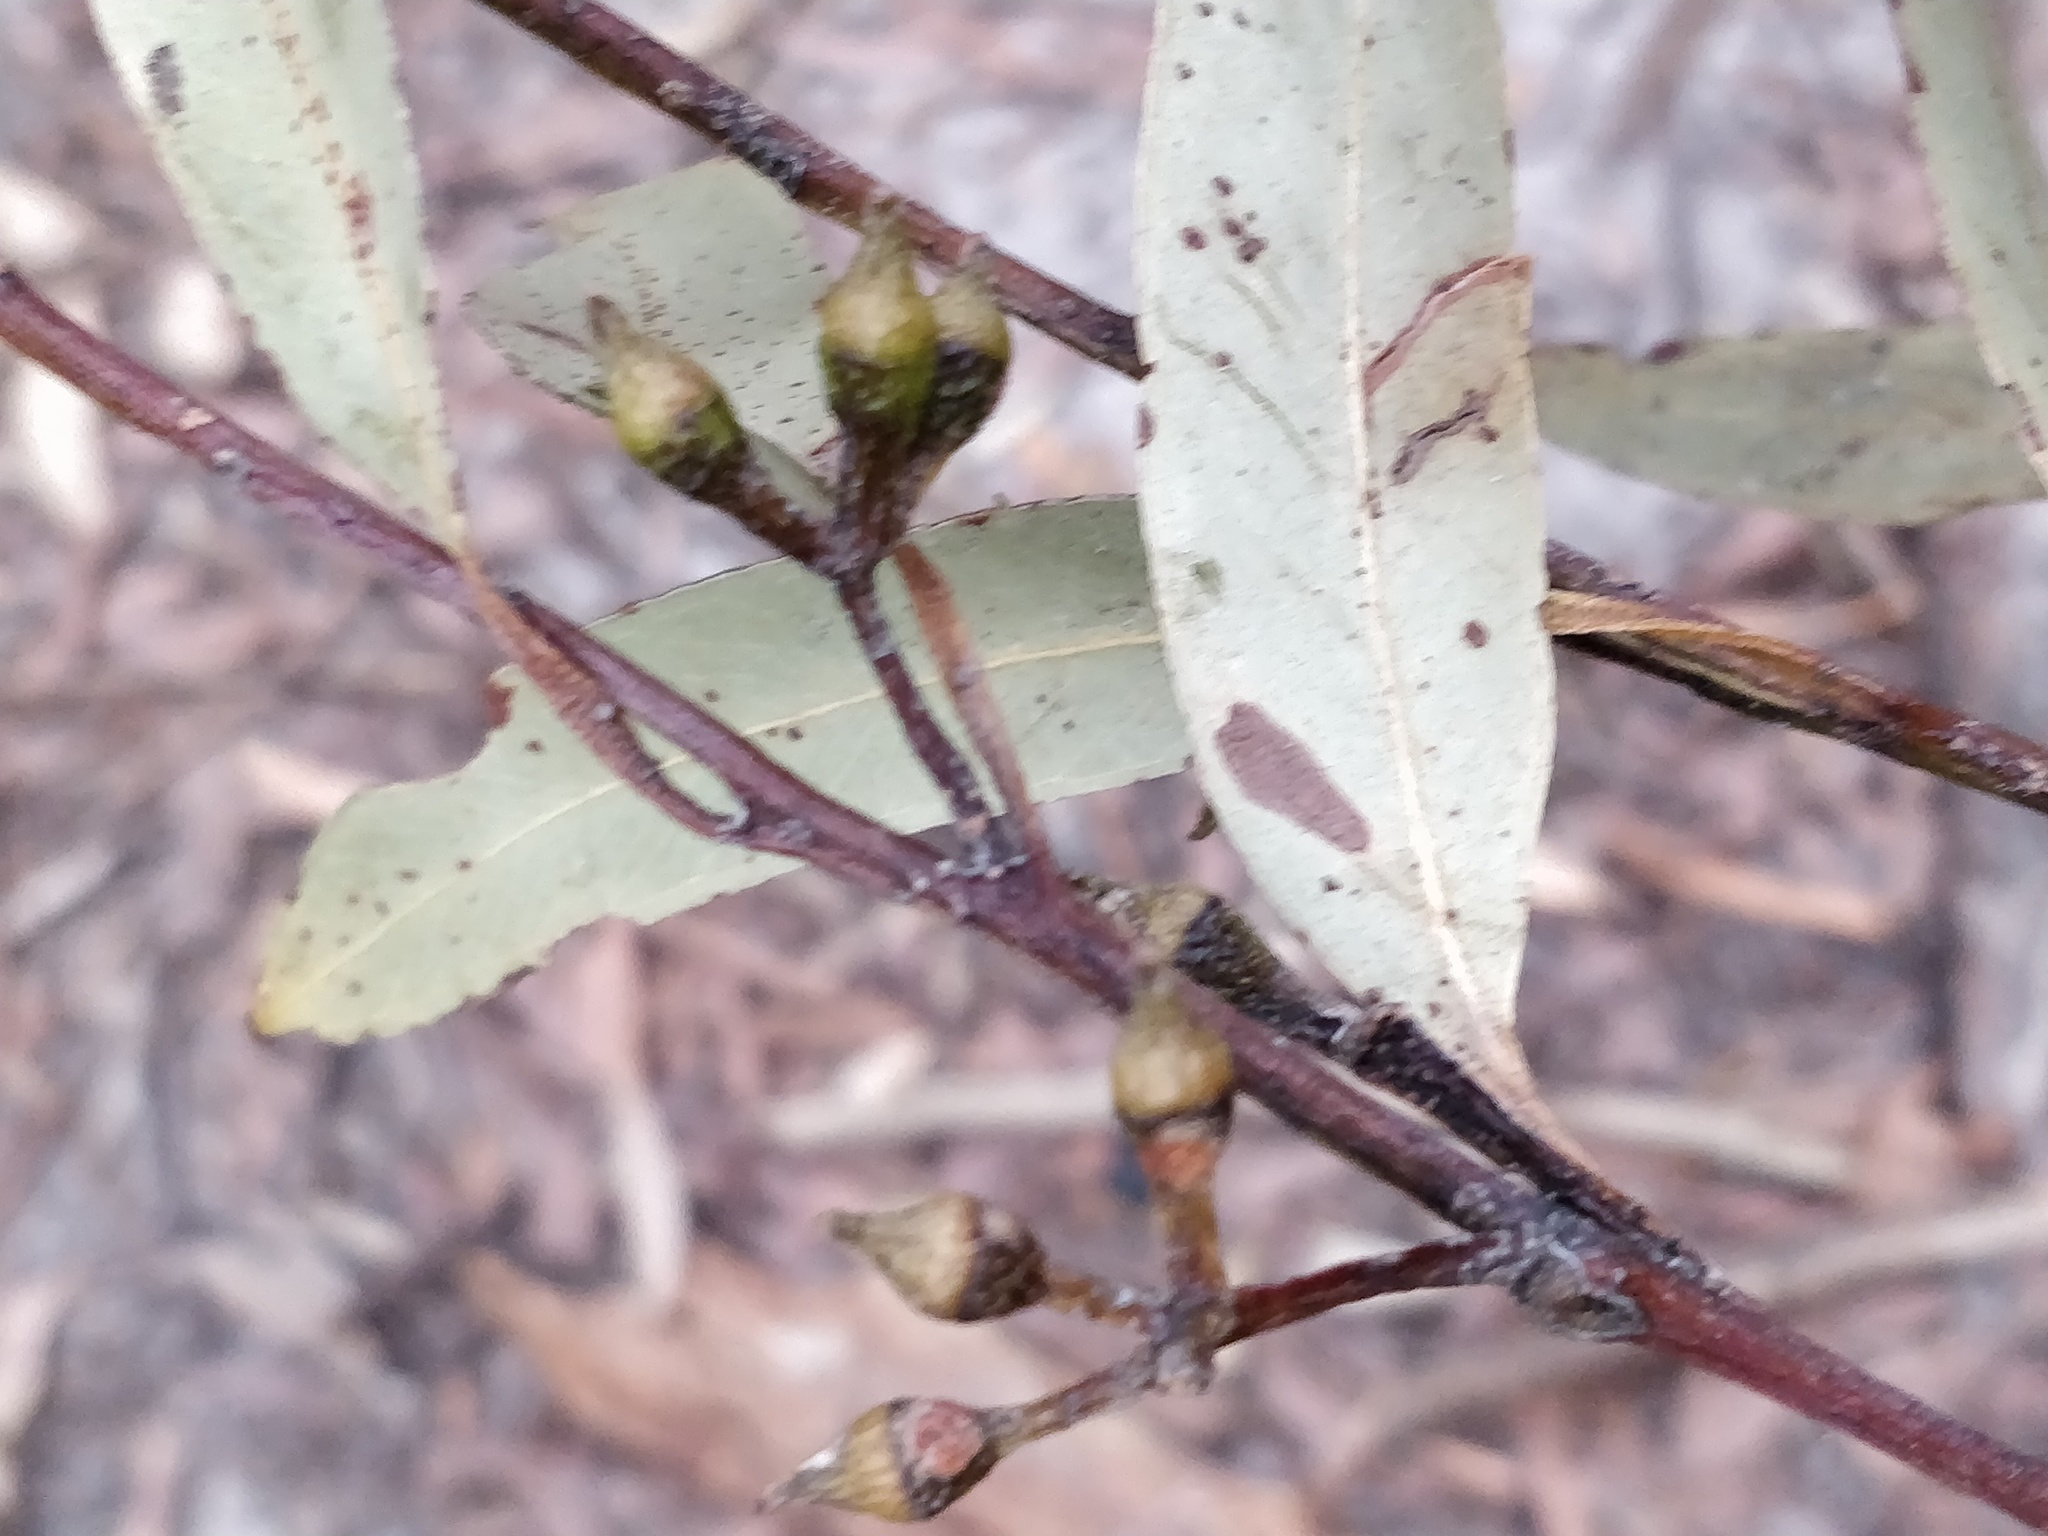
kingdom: Plantae
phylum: Tracheophyta
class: Magnoliopsida
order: Myrtales
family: Myrtaceae
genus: Eucalyptus
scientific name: Eucalyptus pilularis
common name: Blackbutt
